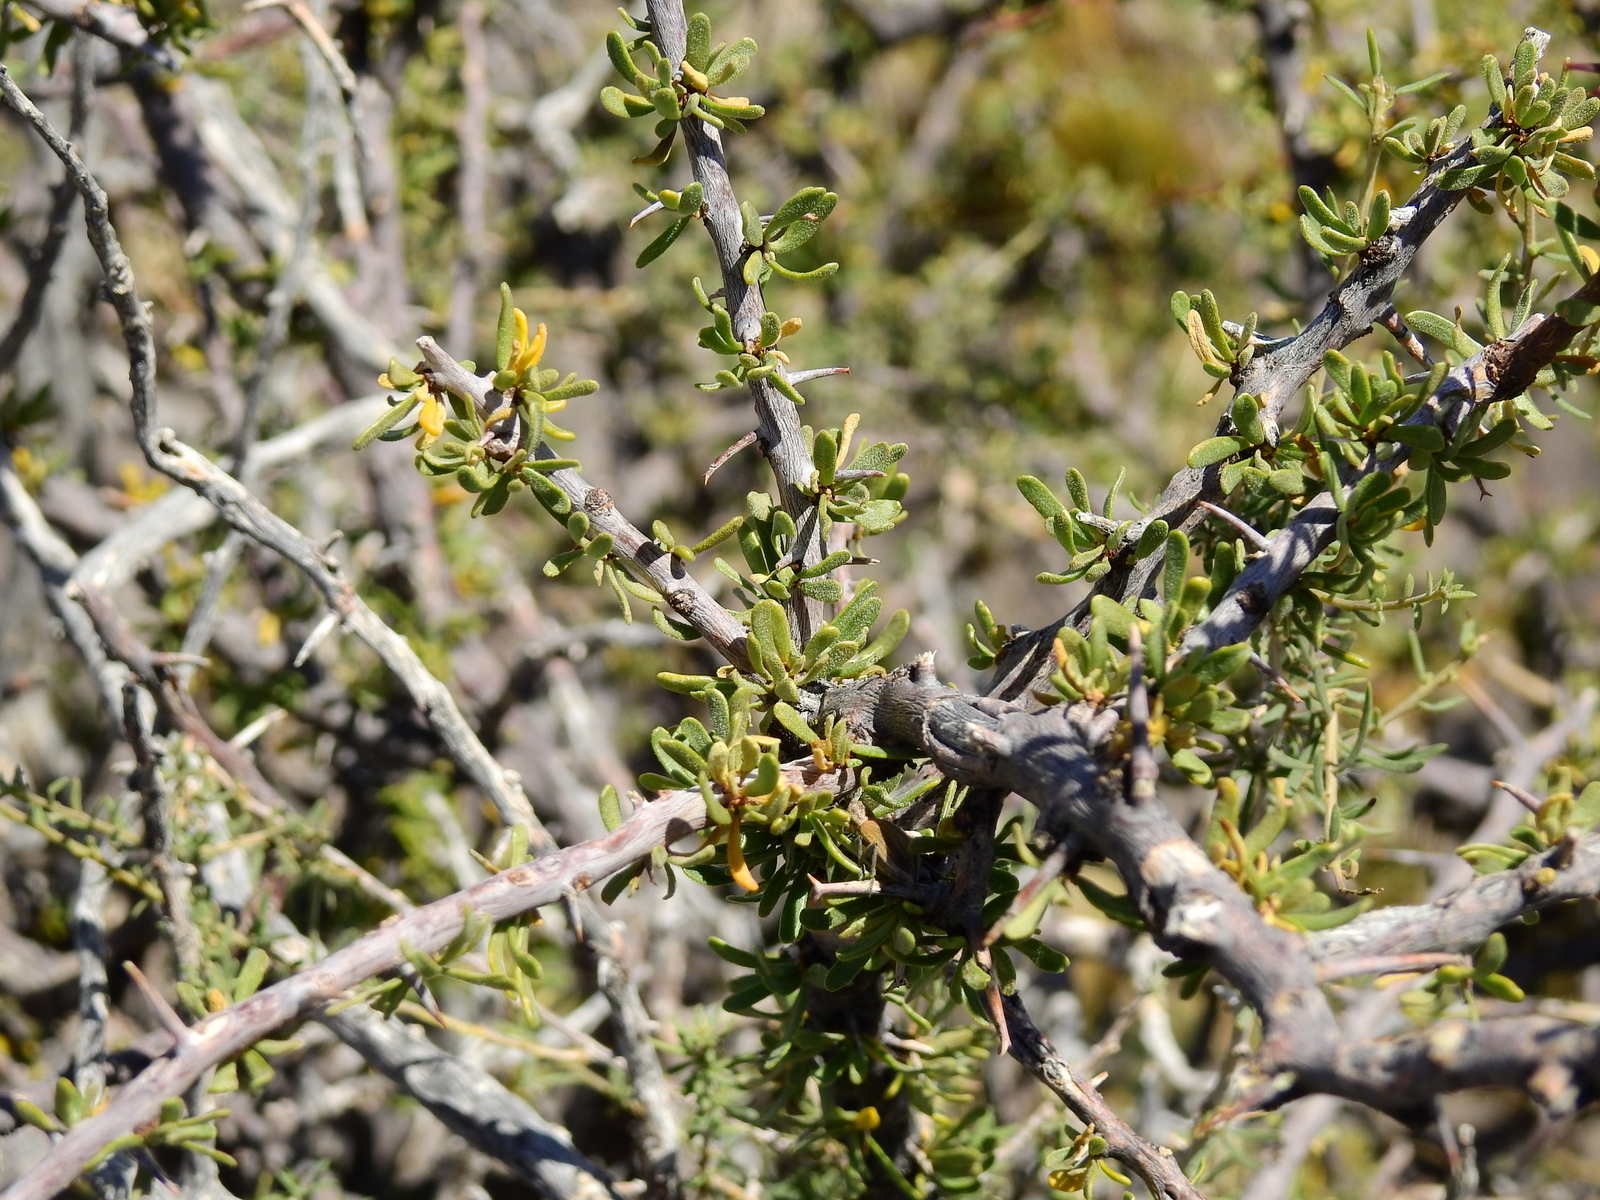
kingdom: Plantae
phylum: Tracheophyta
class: Magnoliopsida
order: Caryophyllales
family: Nyctaginaceae
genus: Bougainvillea
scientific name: Bougainvillea spinosa
